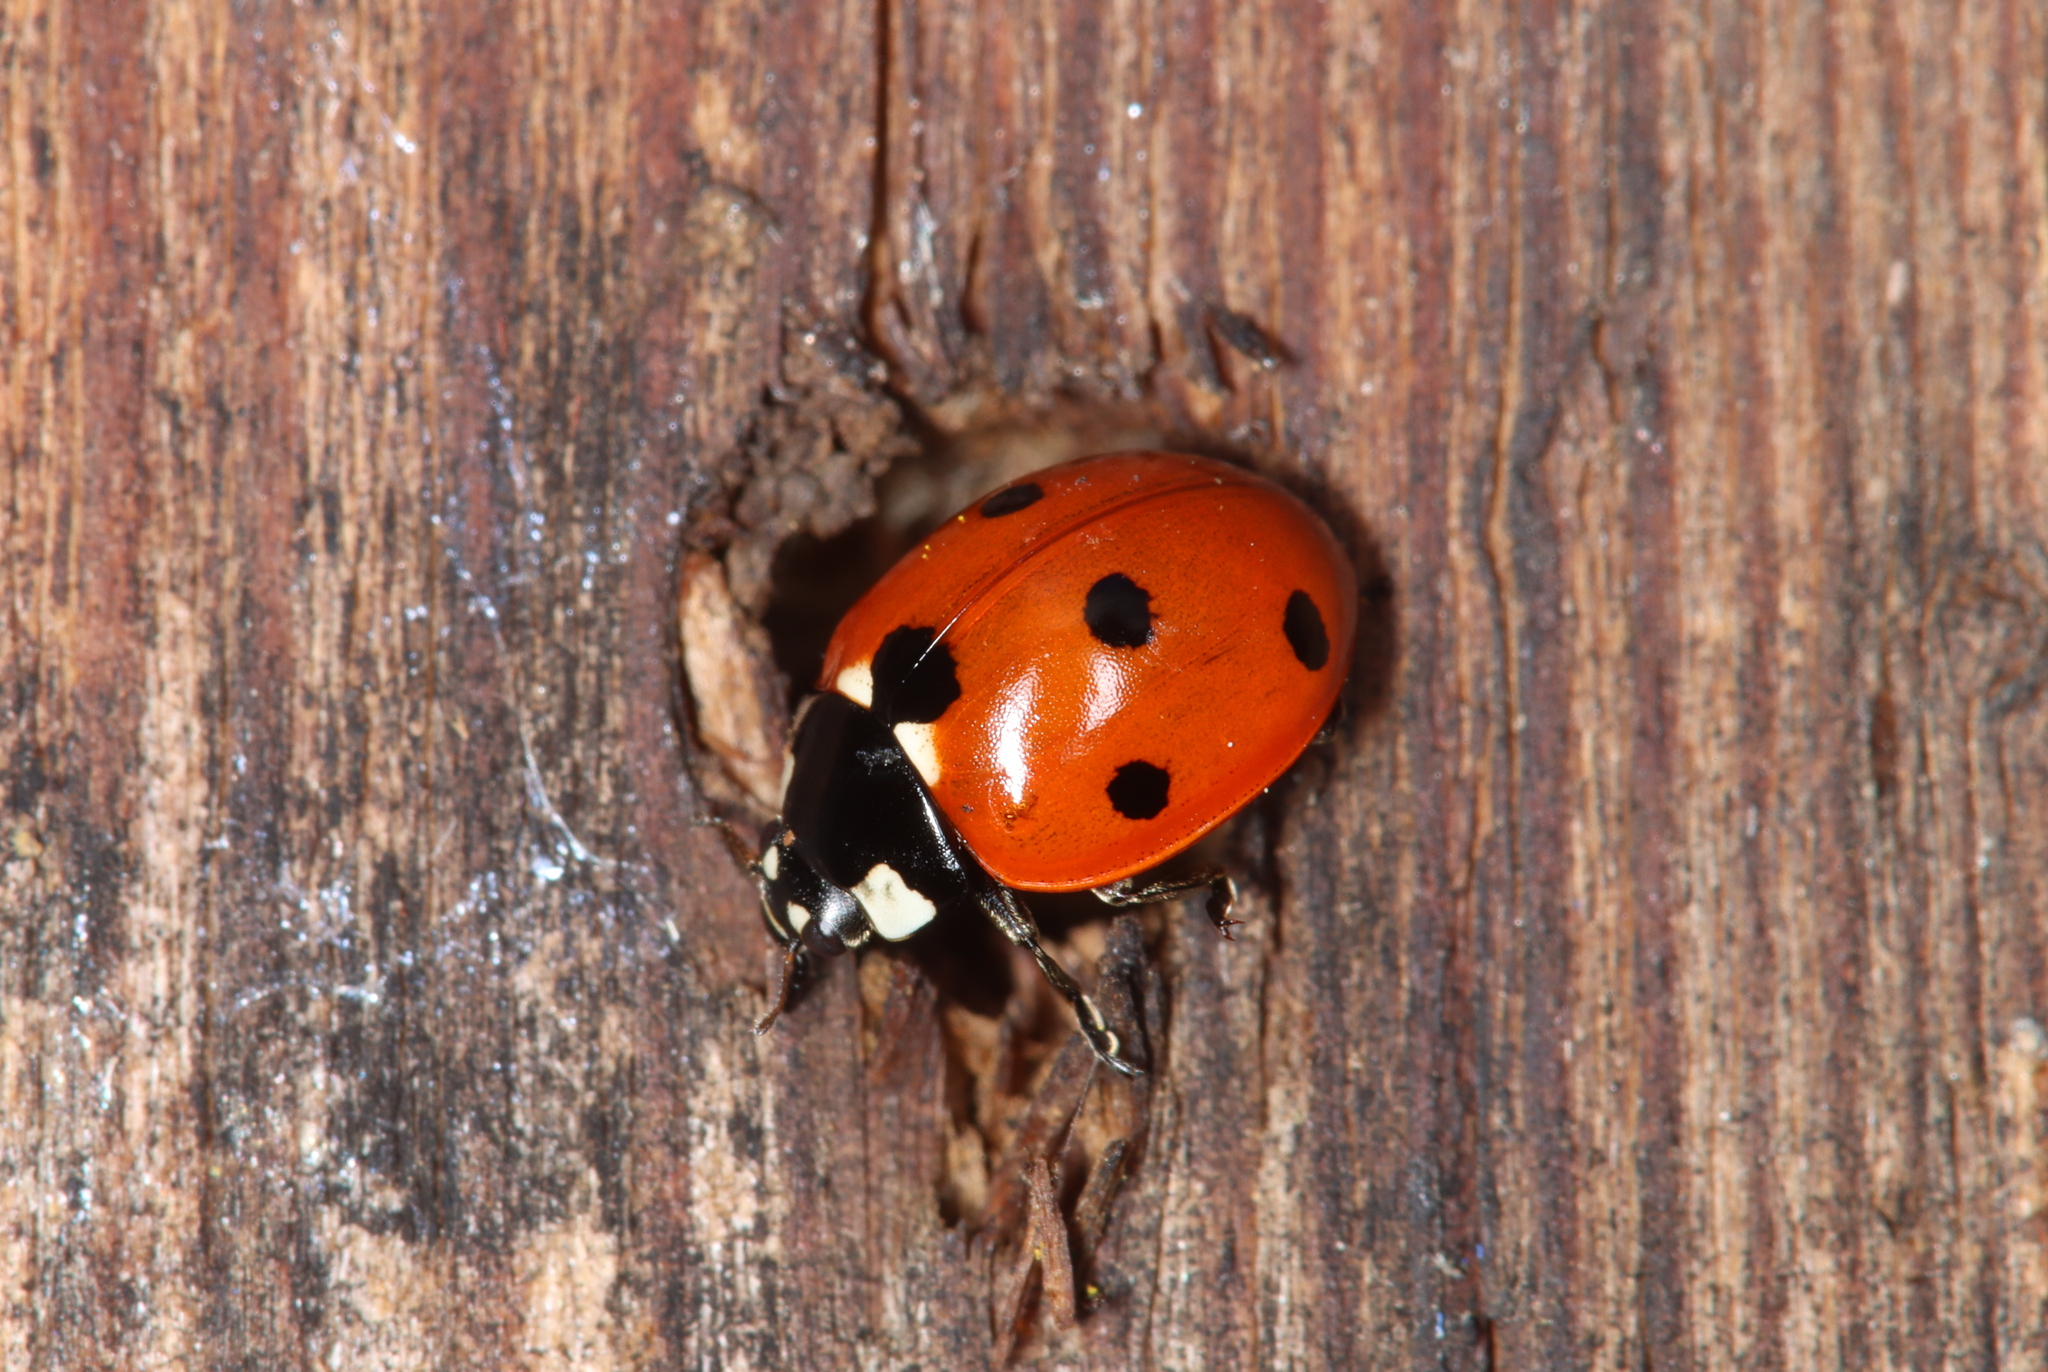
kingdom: Animalia
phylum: Arthropoda
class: Insecta
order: Coleoptera
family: Coccinellidae
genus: Coccinella
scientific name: Coccinella septempunctata
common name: Sevenspotted lady beetle
